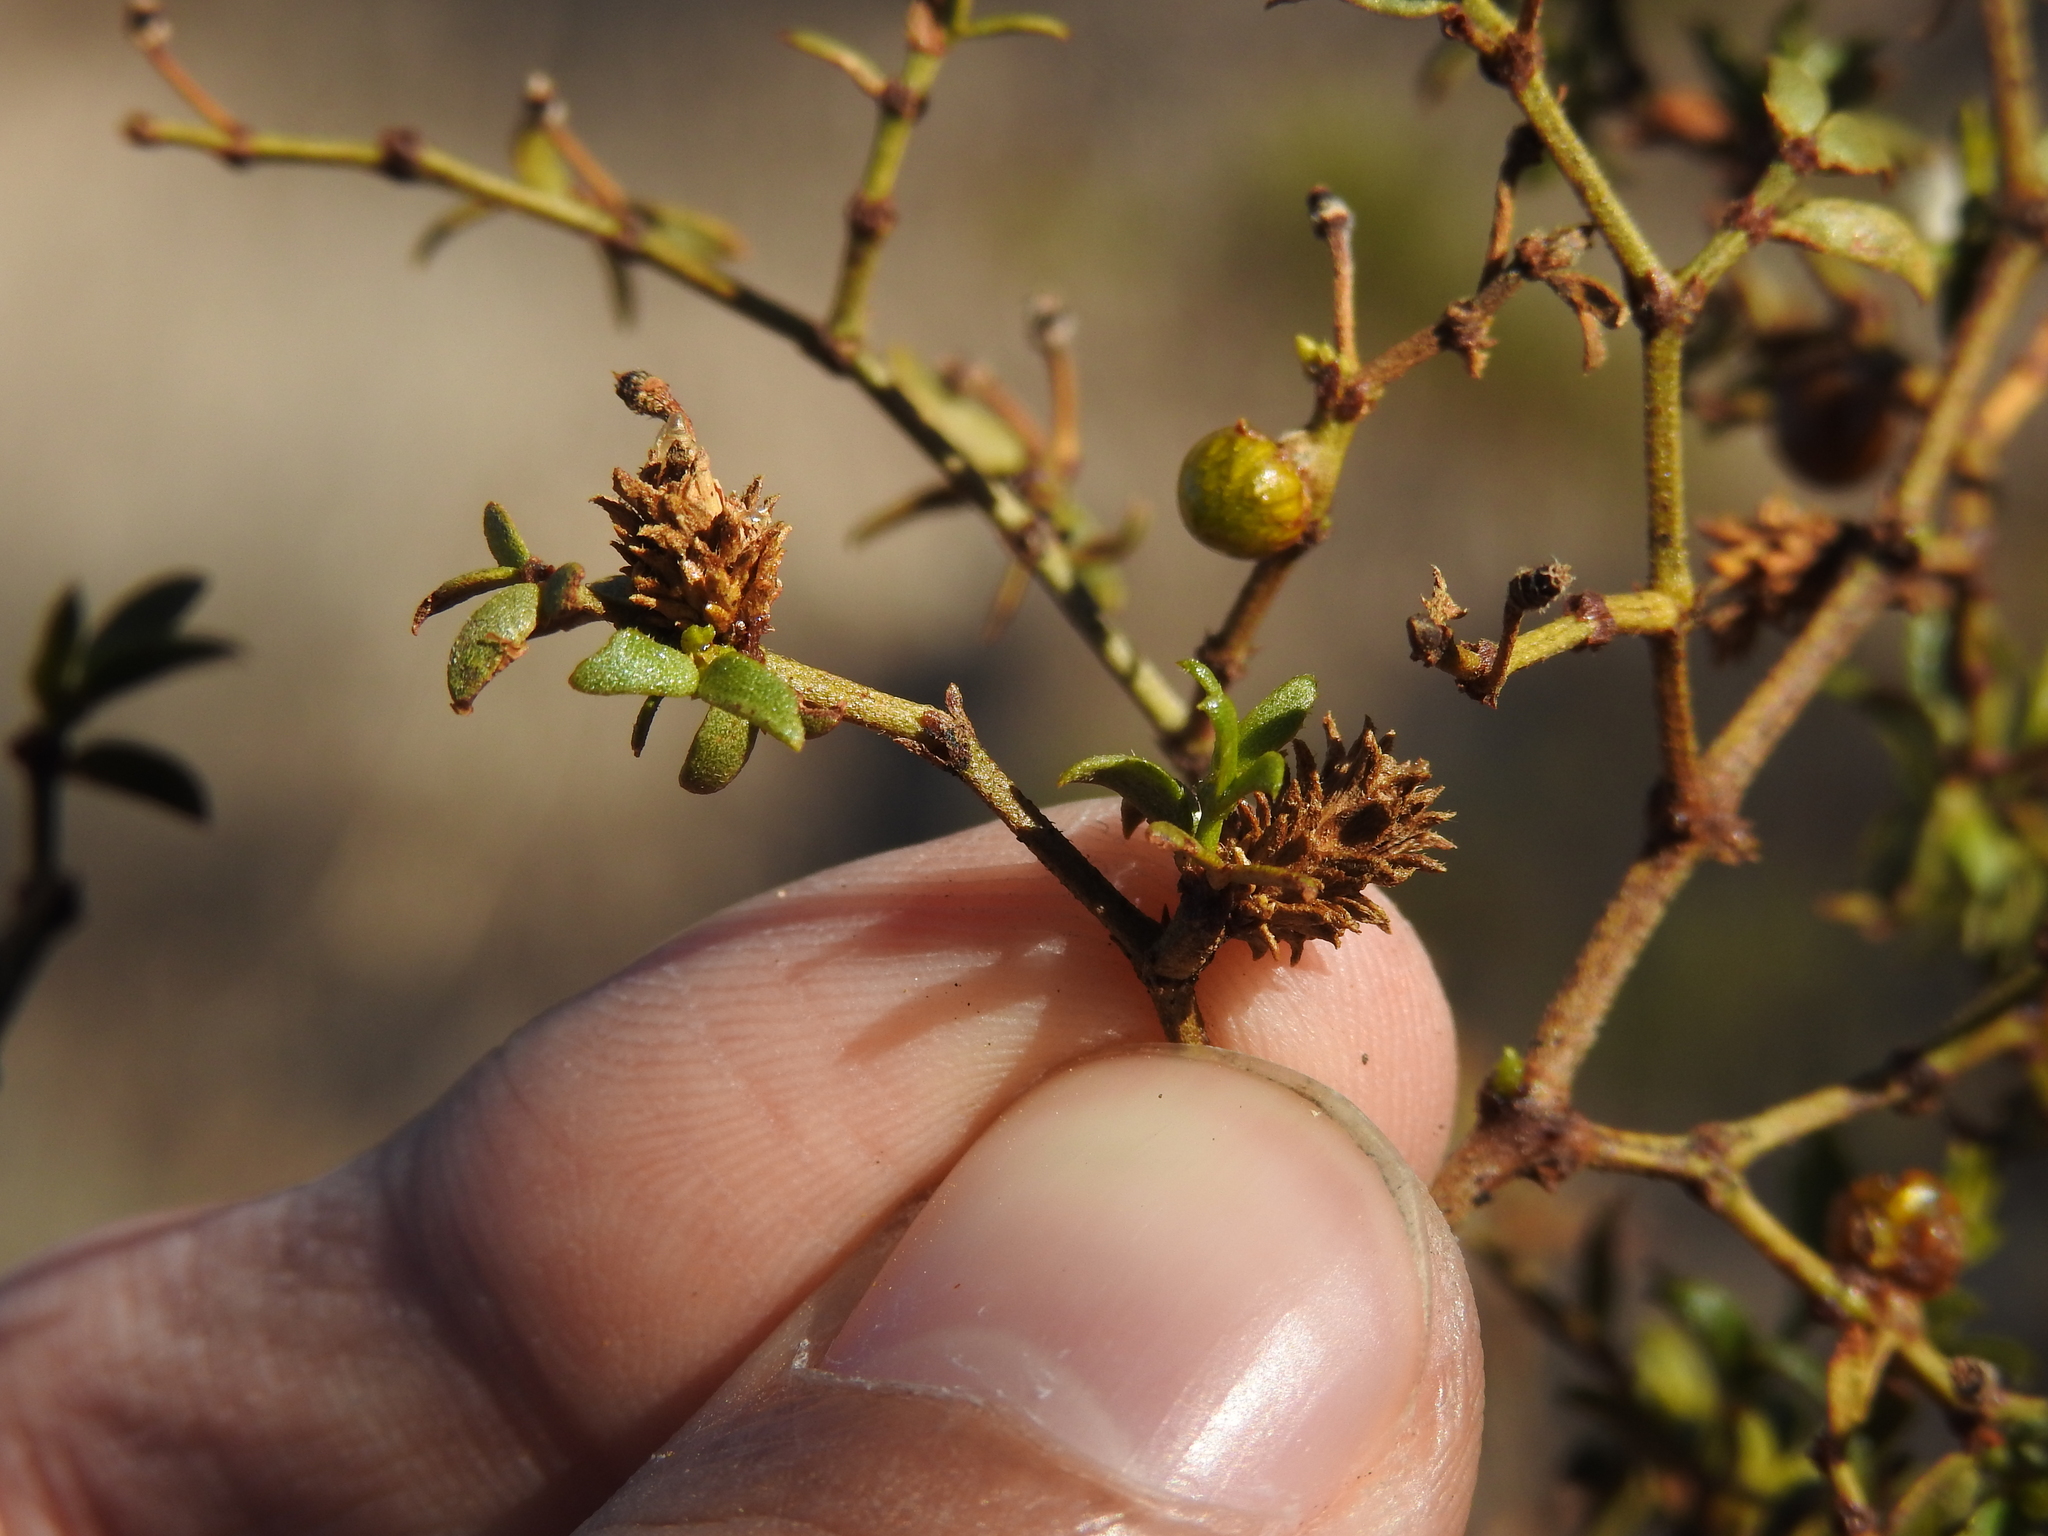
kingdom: Animalia
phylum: Arthropoda
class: Insecta
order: Diptera
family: Cecidomyiidae
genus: Asphondylia
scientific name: Asphondylia rosetta
